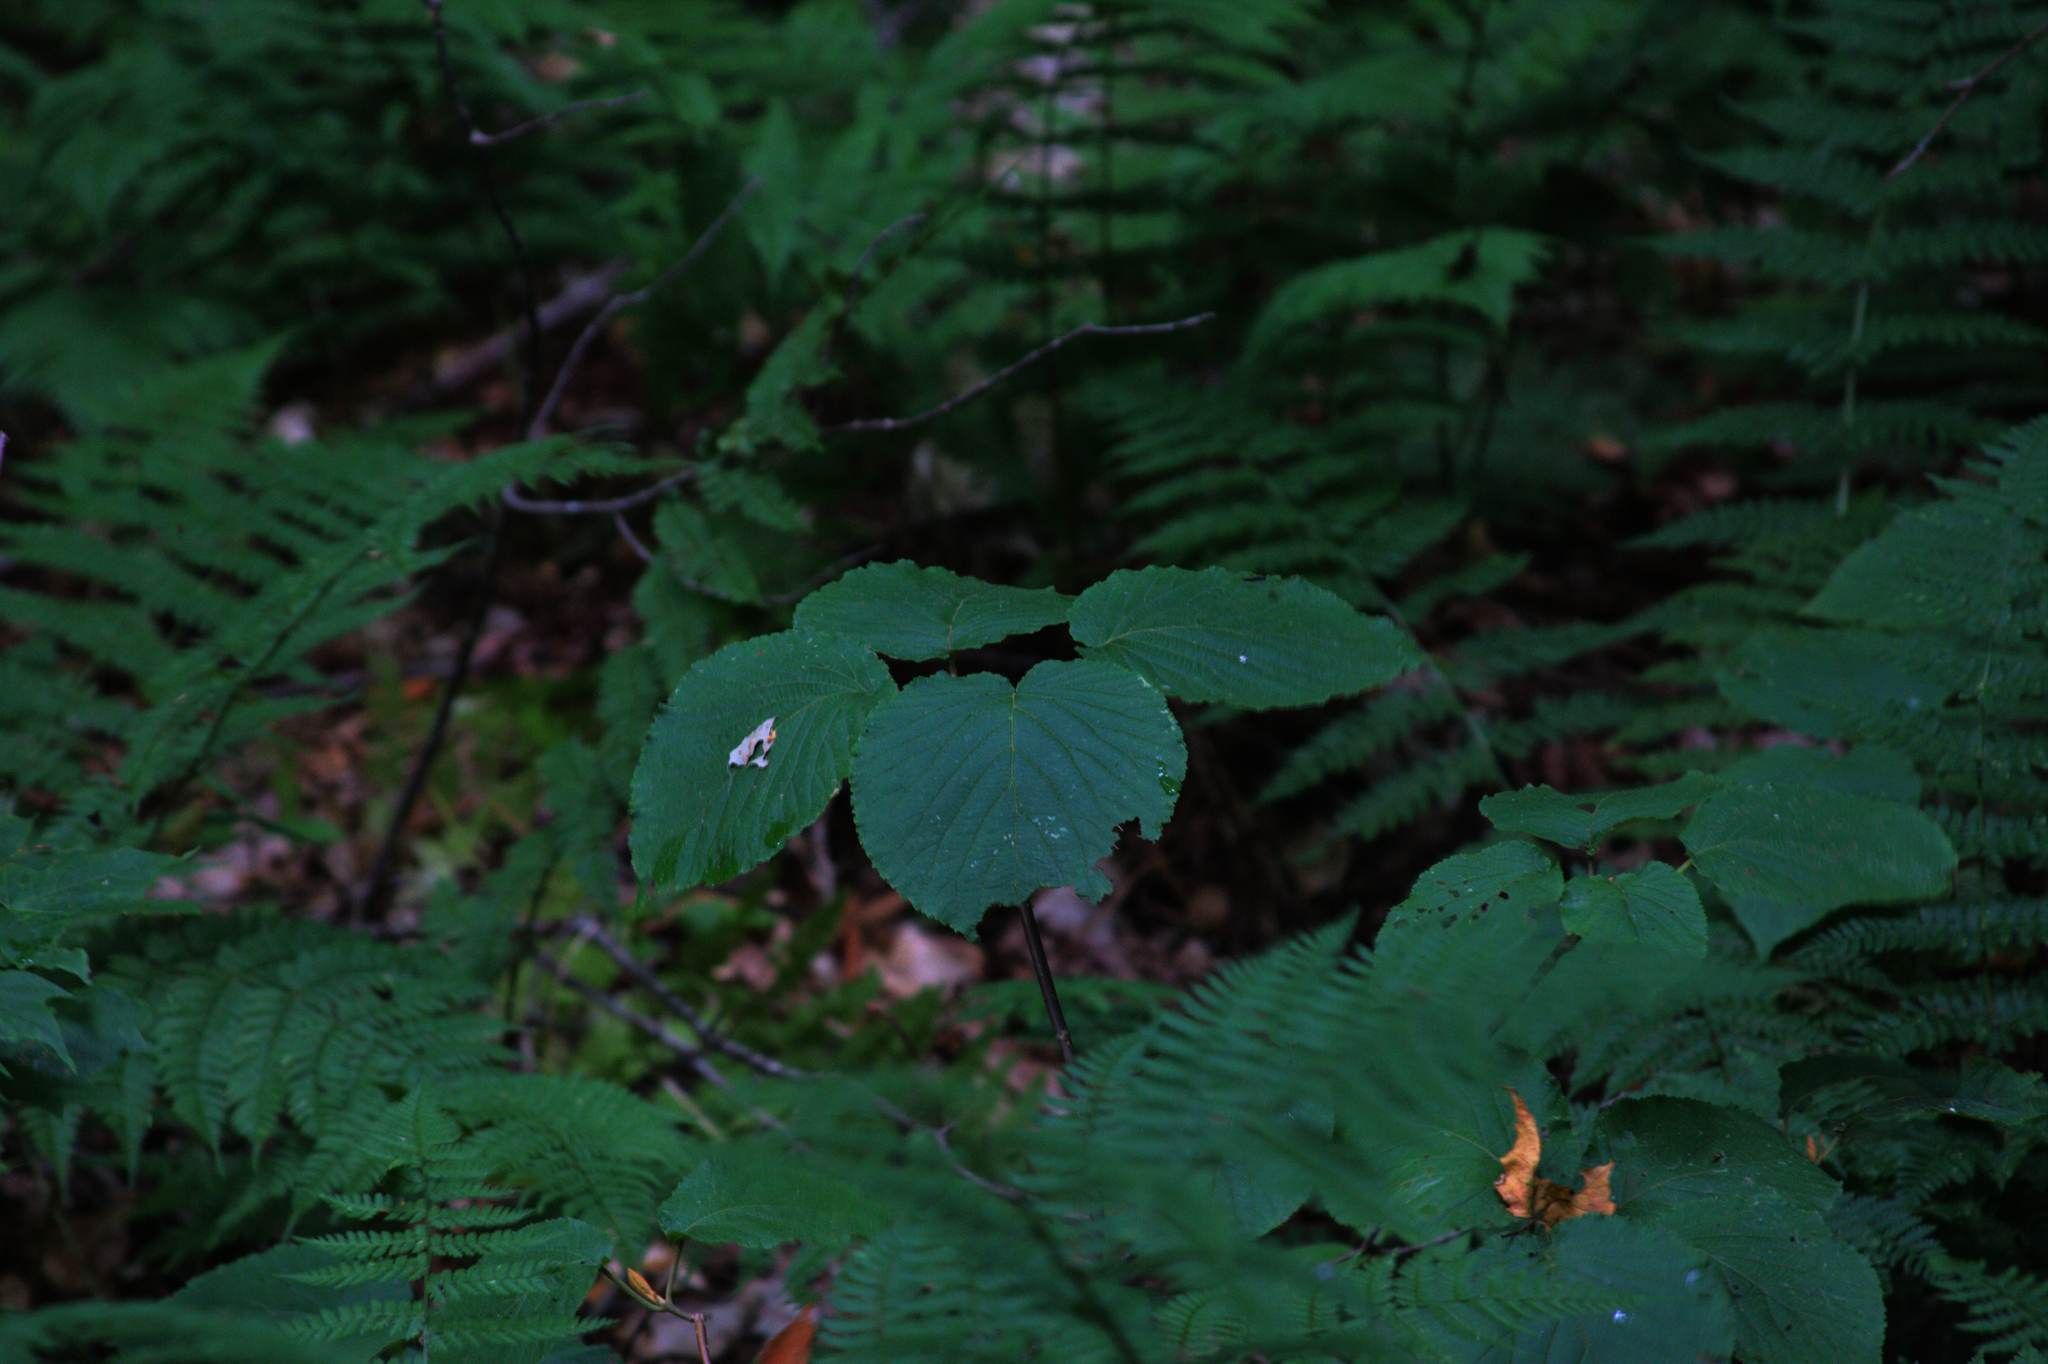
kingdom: Plantae
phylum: Tracheophyta
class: Magnoliopsida
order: Dipsacales
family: Viburnaceae
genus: Viburnum
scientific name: Viburnum lantanoides
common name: Hobblebush
